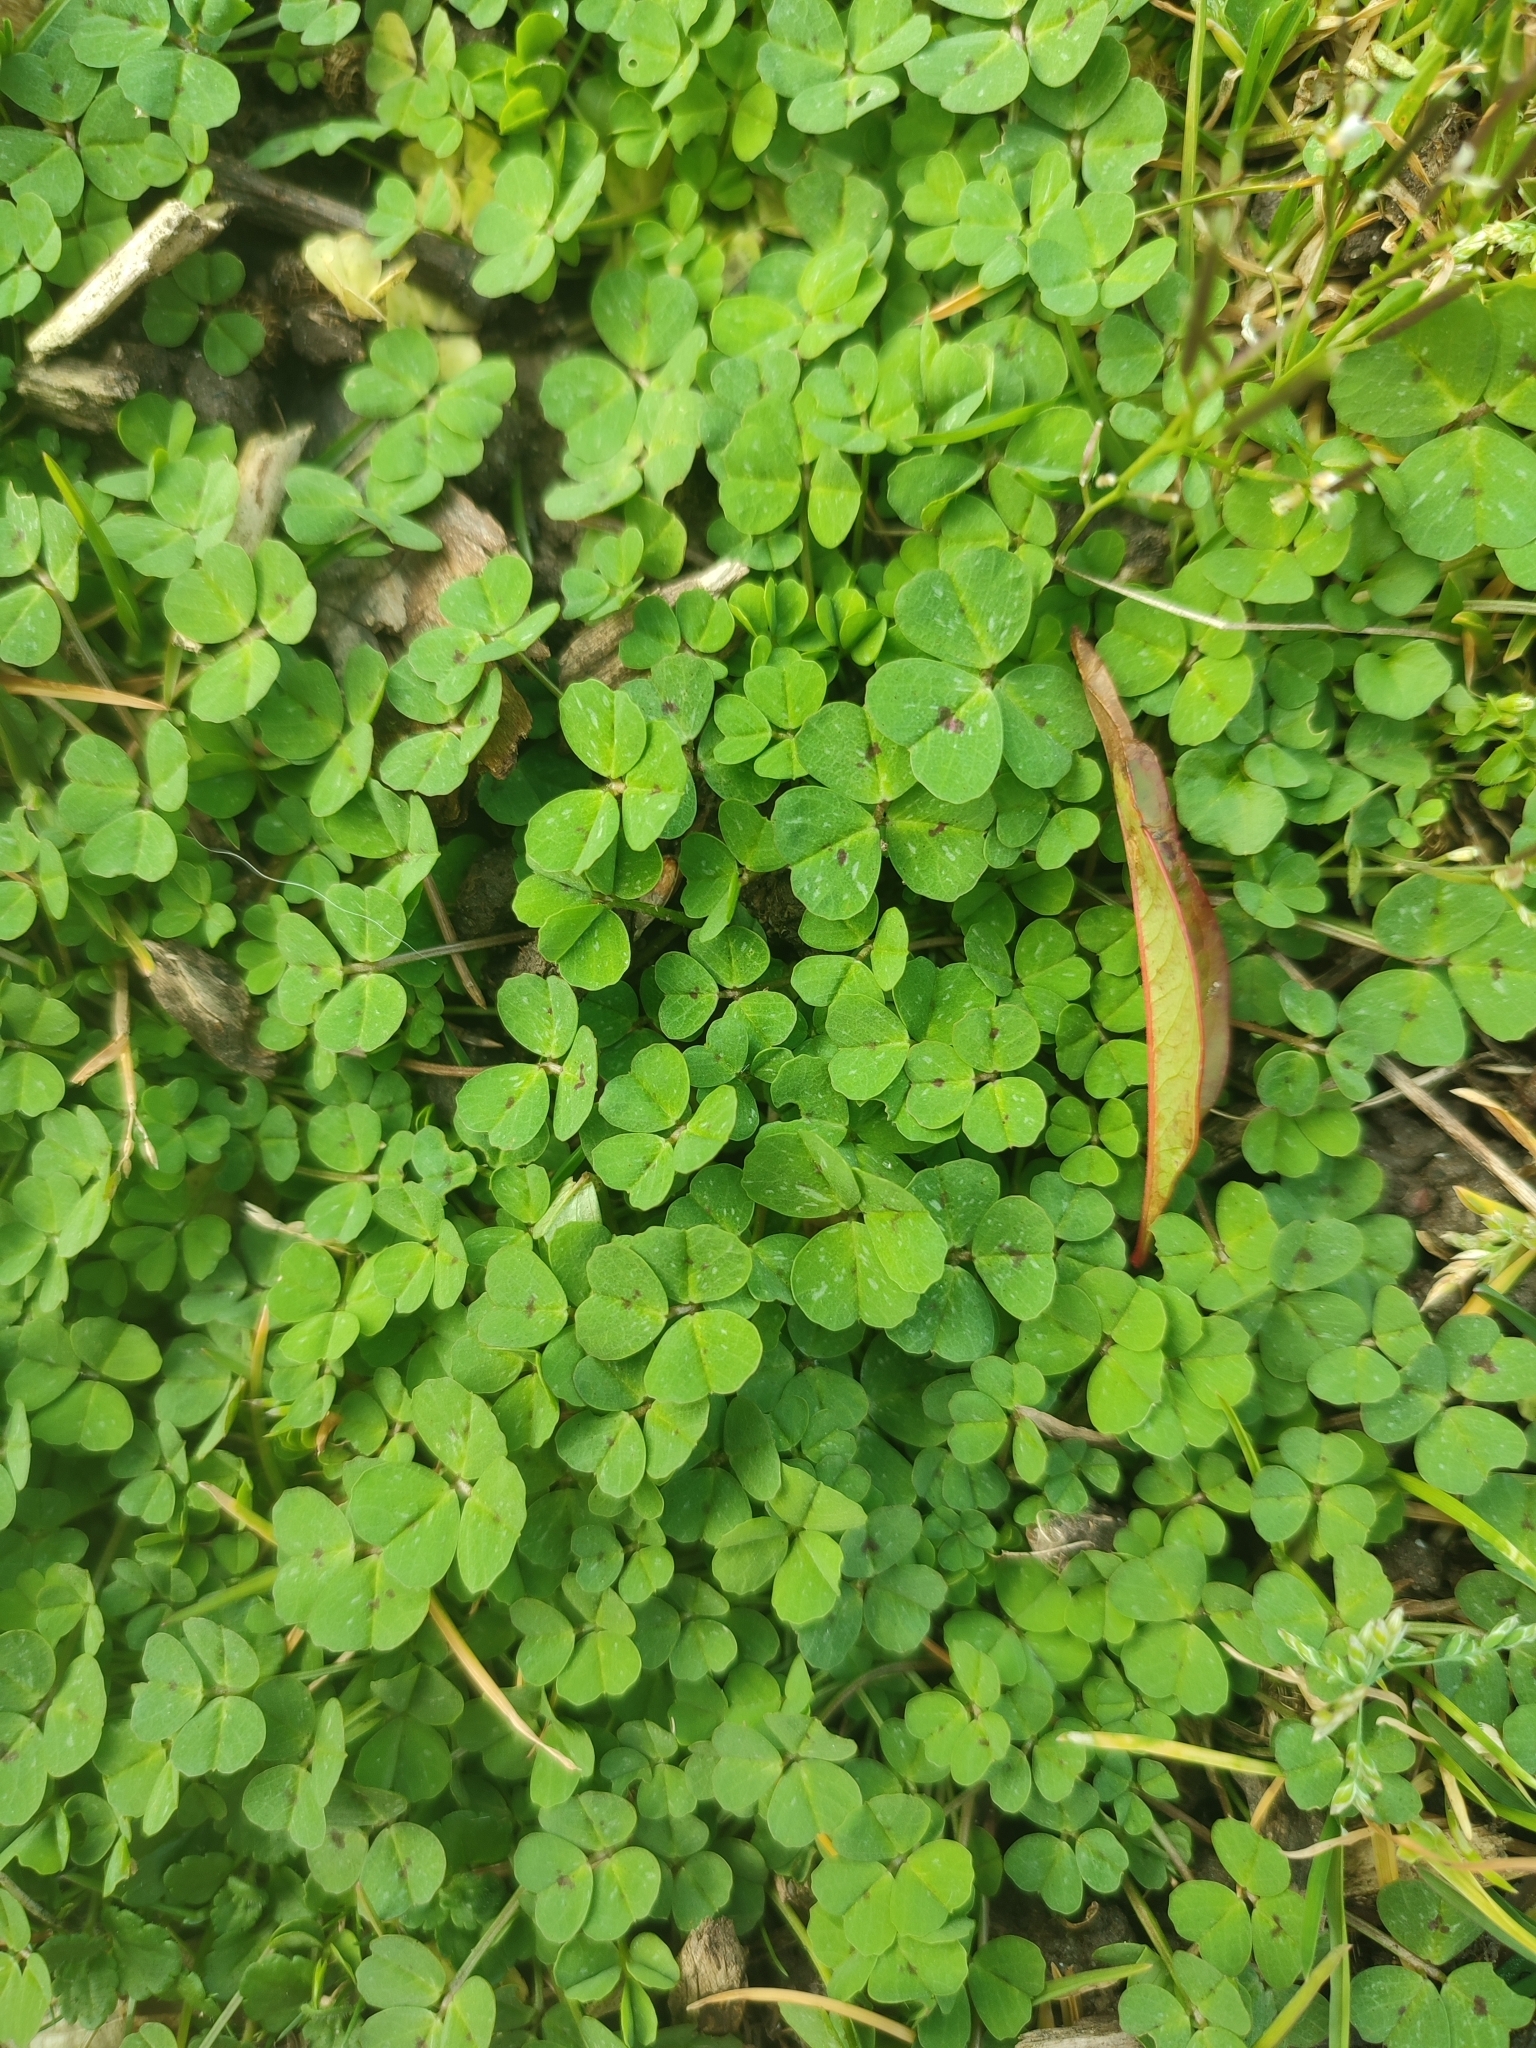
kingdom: Plantae
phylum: Tracheophyta
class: Magnoliopsida
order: Fabales
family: Fabaceae
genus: Medicago
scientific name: Medicago arabica
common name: Spotted medick
